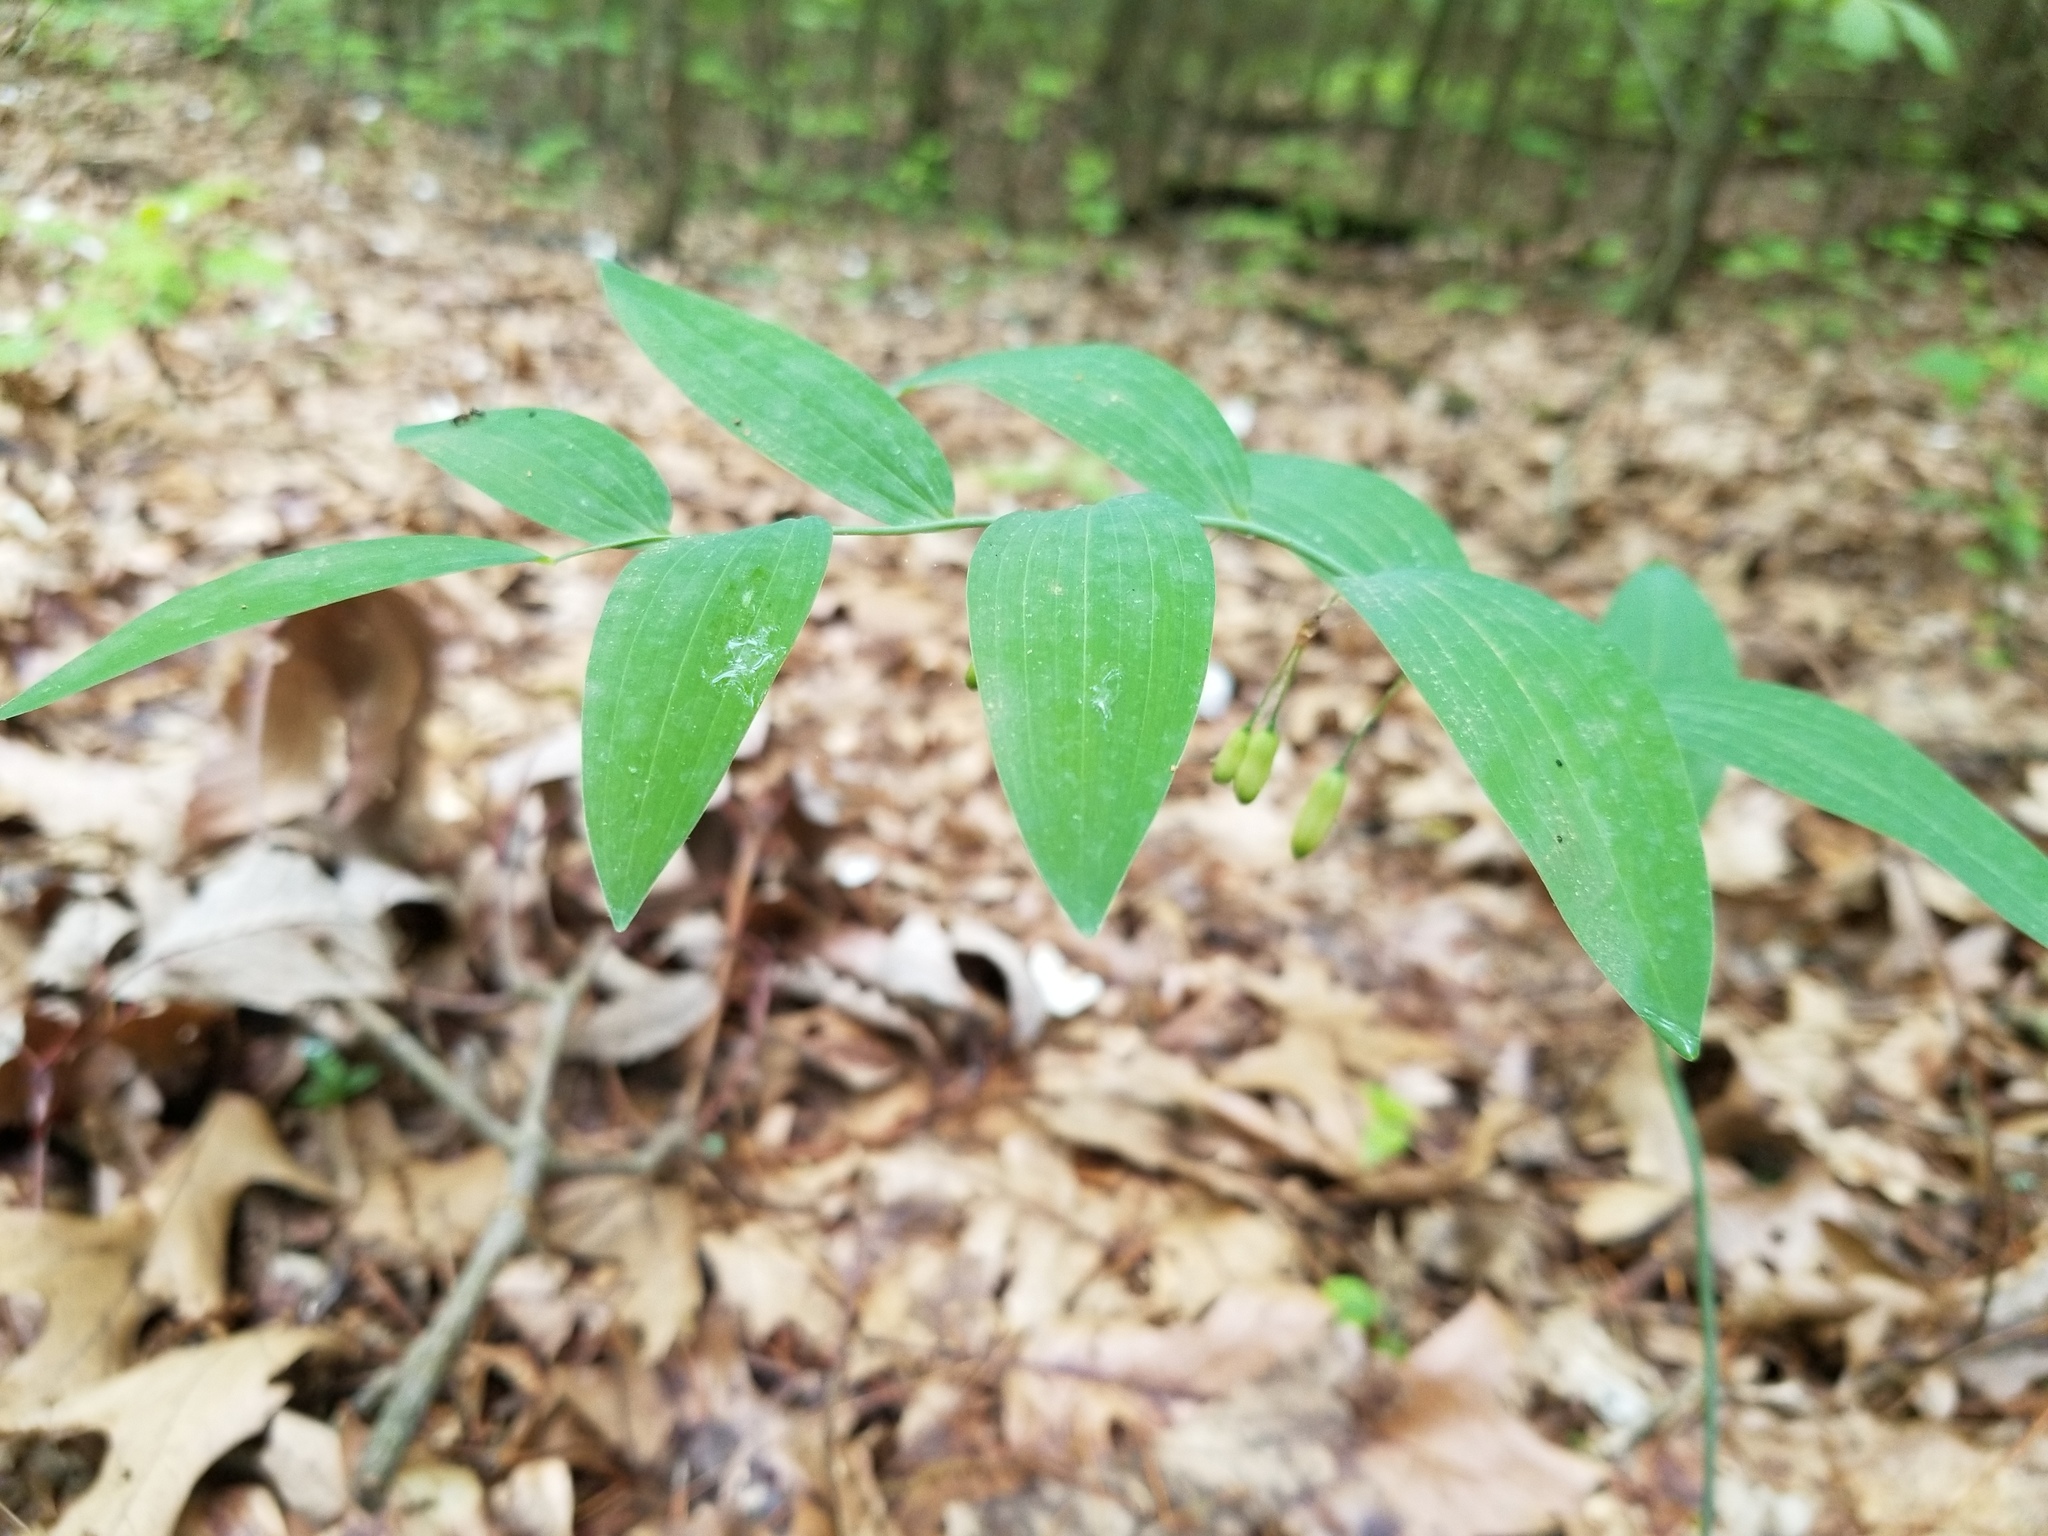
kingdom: Plantae
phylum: Tracheophyta
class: Liliopsida
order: Asparagales
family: Asparagaceae
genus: Polygonatum
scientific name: Polygonatum biflorum
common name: American solomon's-seal
